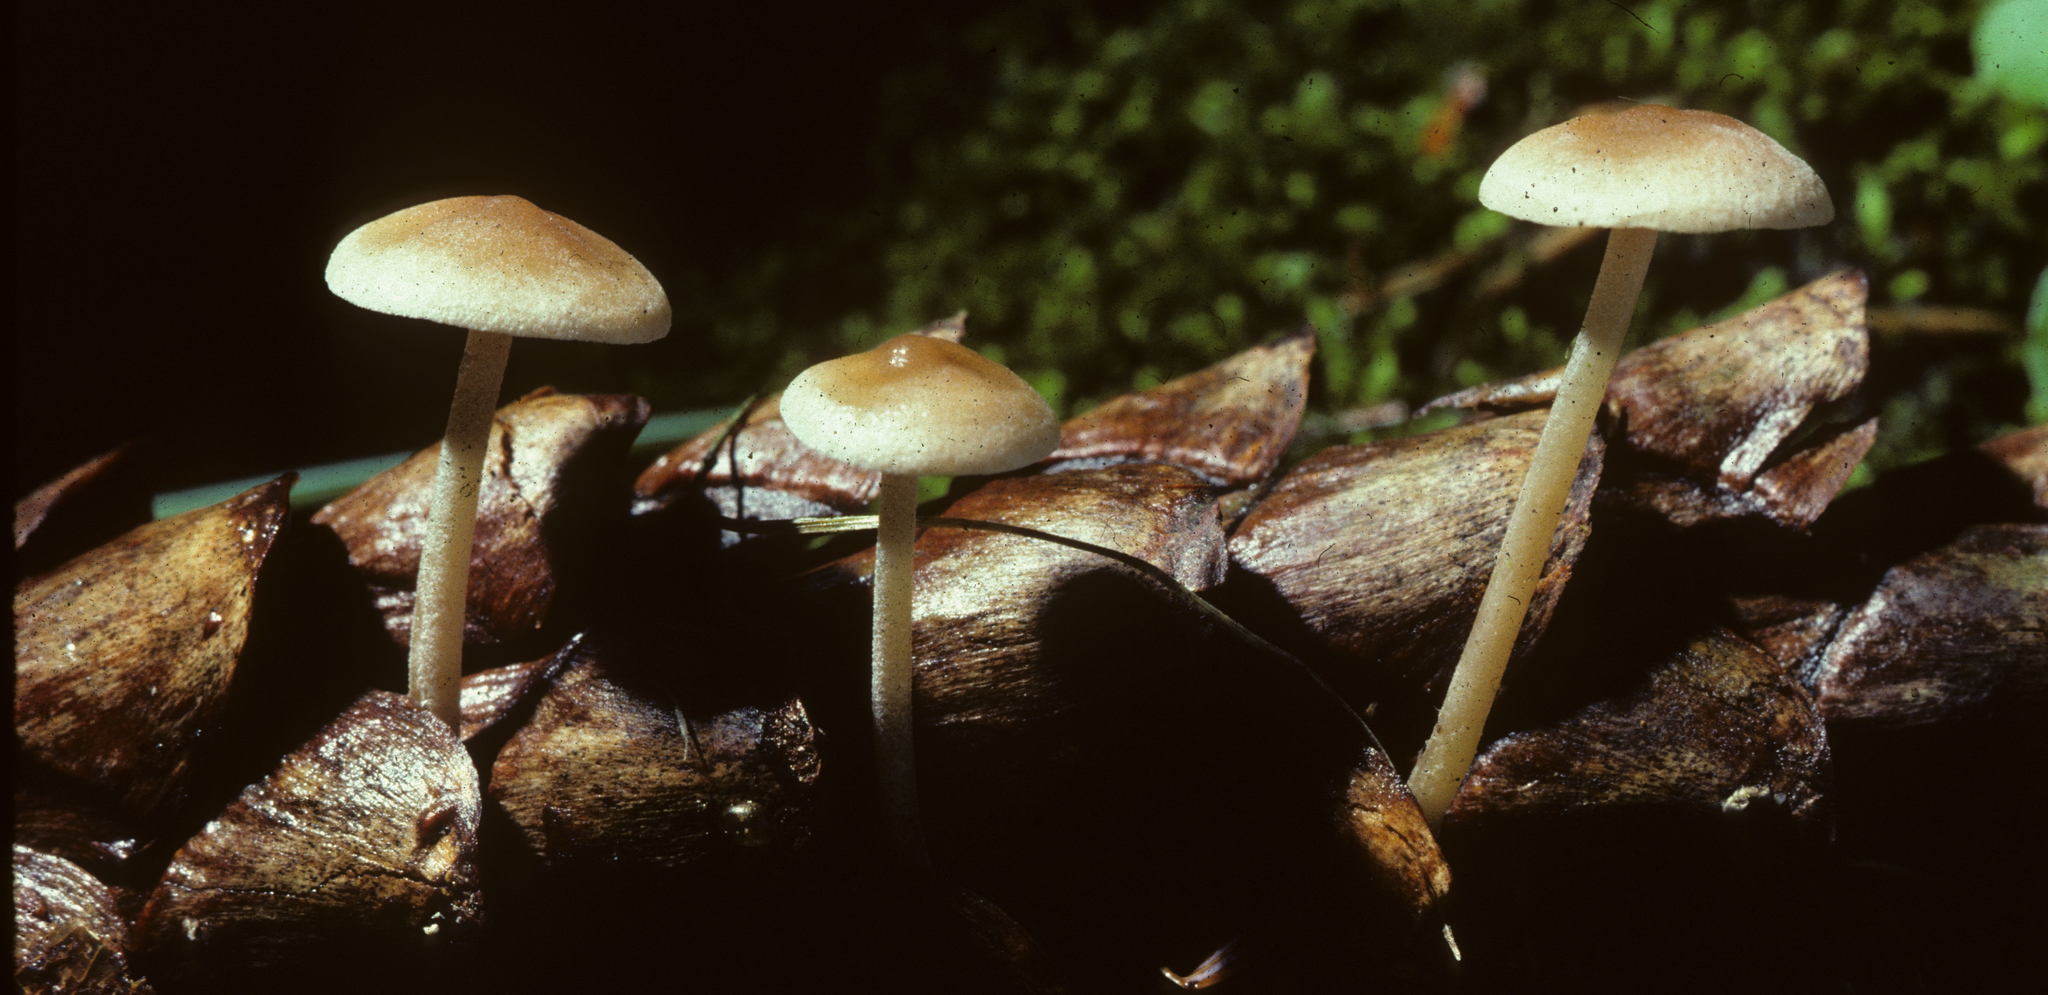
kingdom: Fungi
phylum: Basidiomycota
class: Agaricomycetes
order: Agaricales
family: Marasmiaceae
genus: Baeospora
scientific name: Baeospora myosura
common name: Conifercone cap
